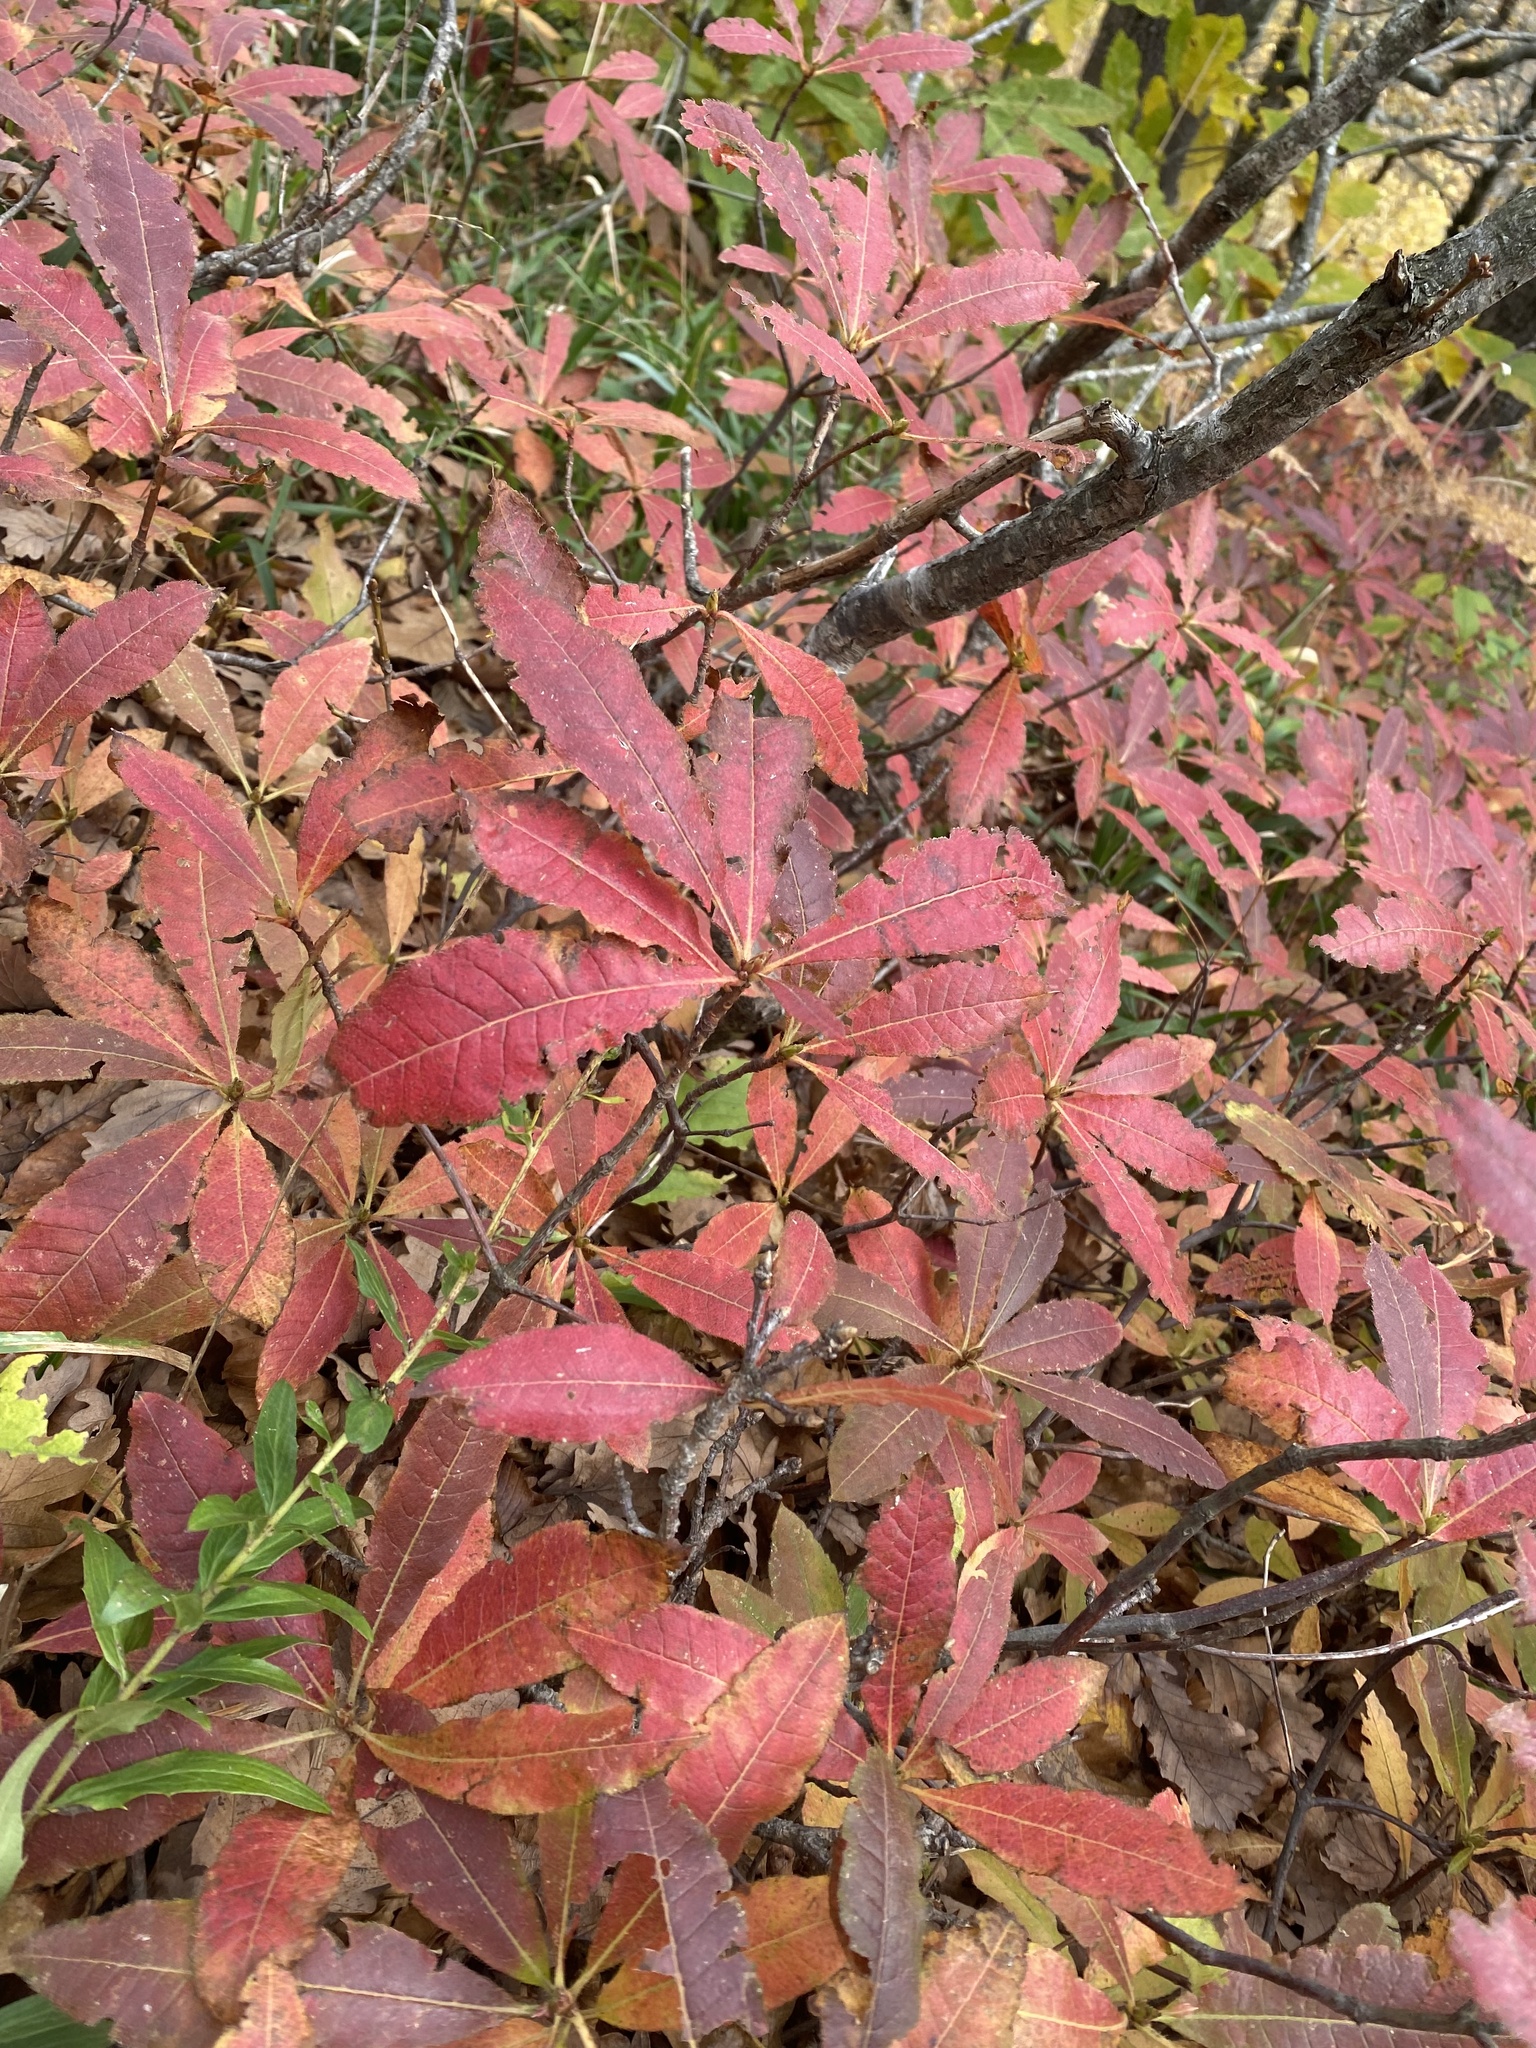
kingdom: Plantae
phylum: Tracheophyta
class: Magnoliopsida
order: Ericales
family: Ericaceae
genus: Rhododendron
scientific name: Rhododendron luteum
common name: Yellow azalea
